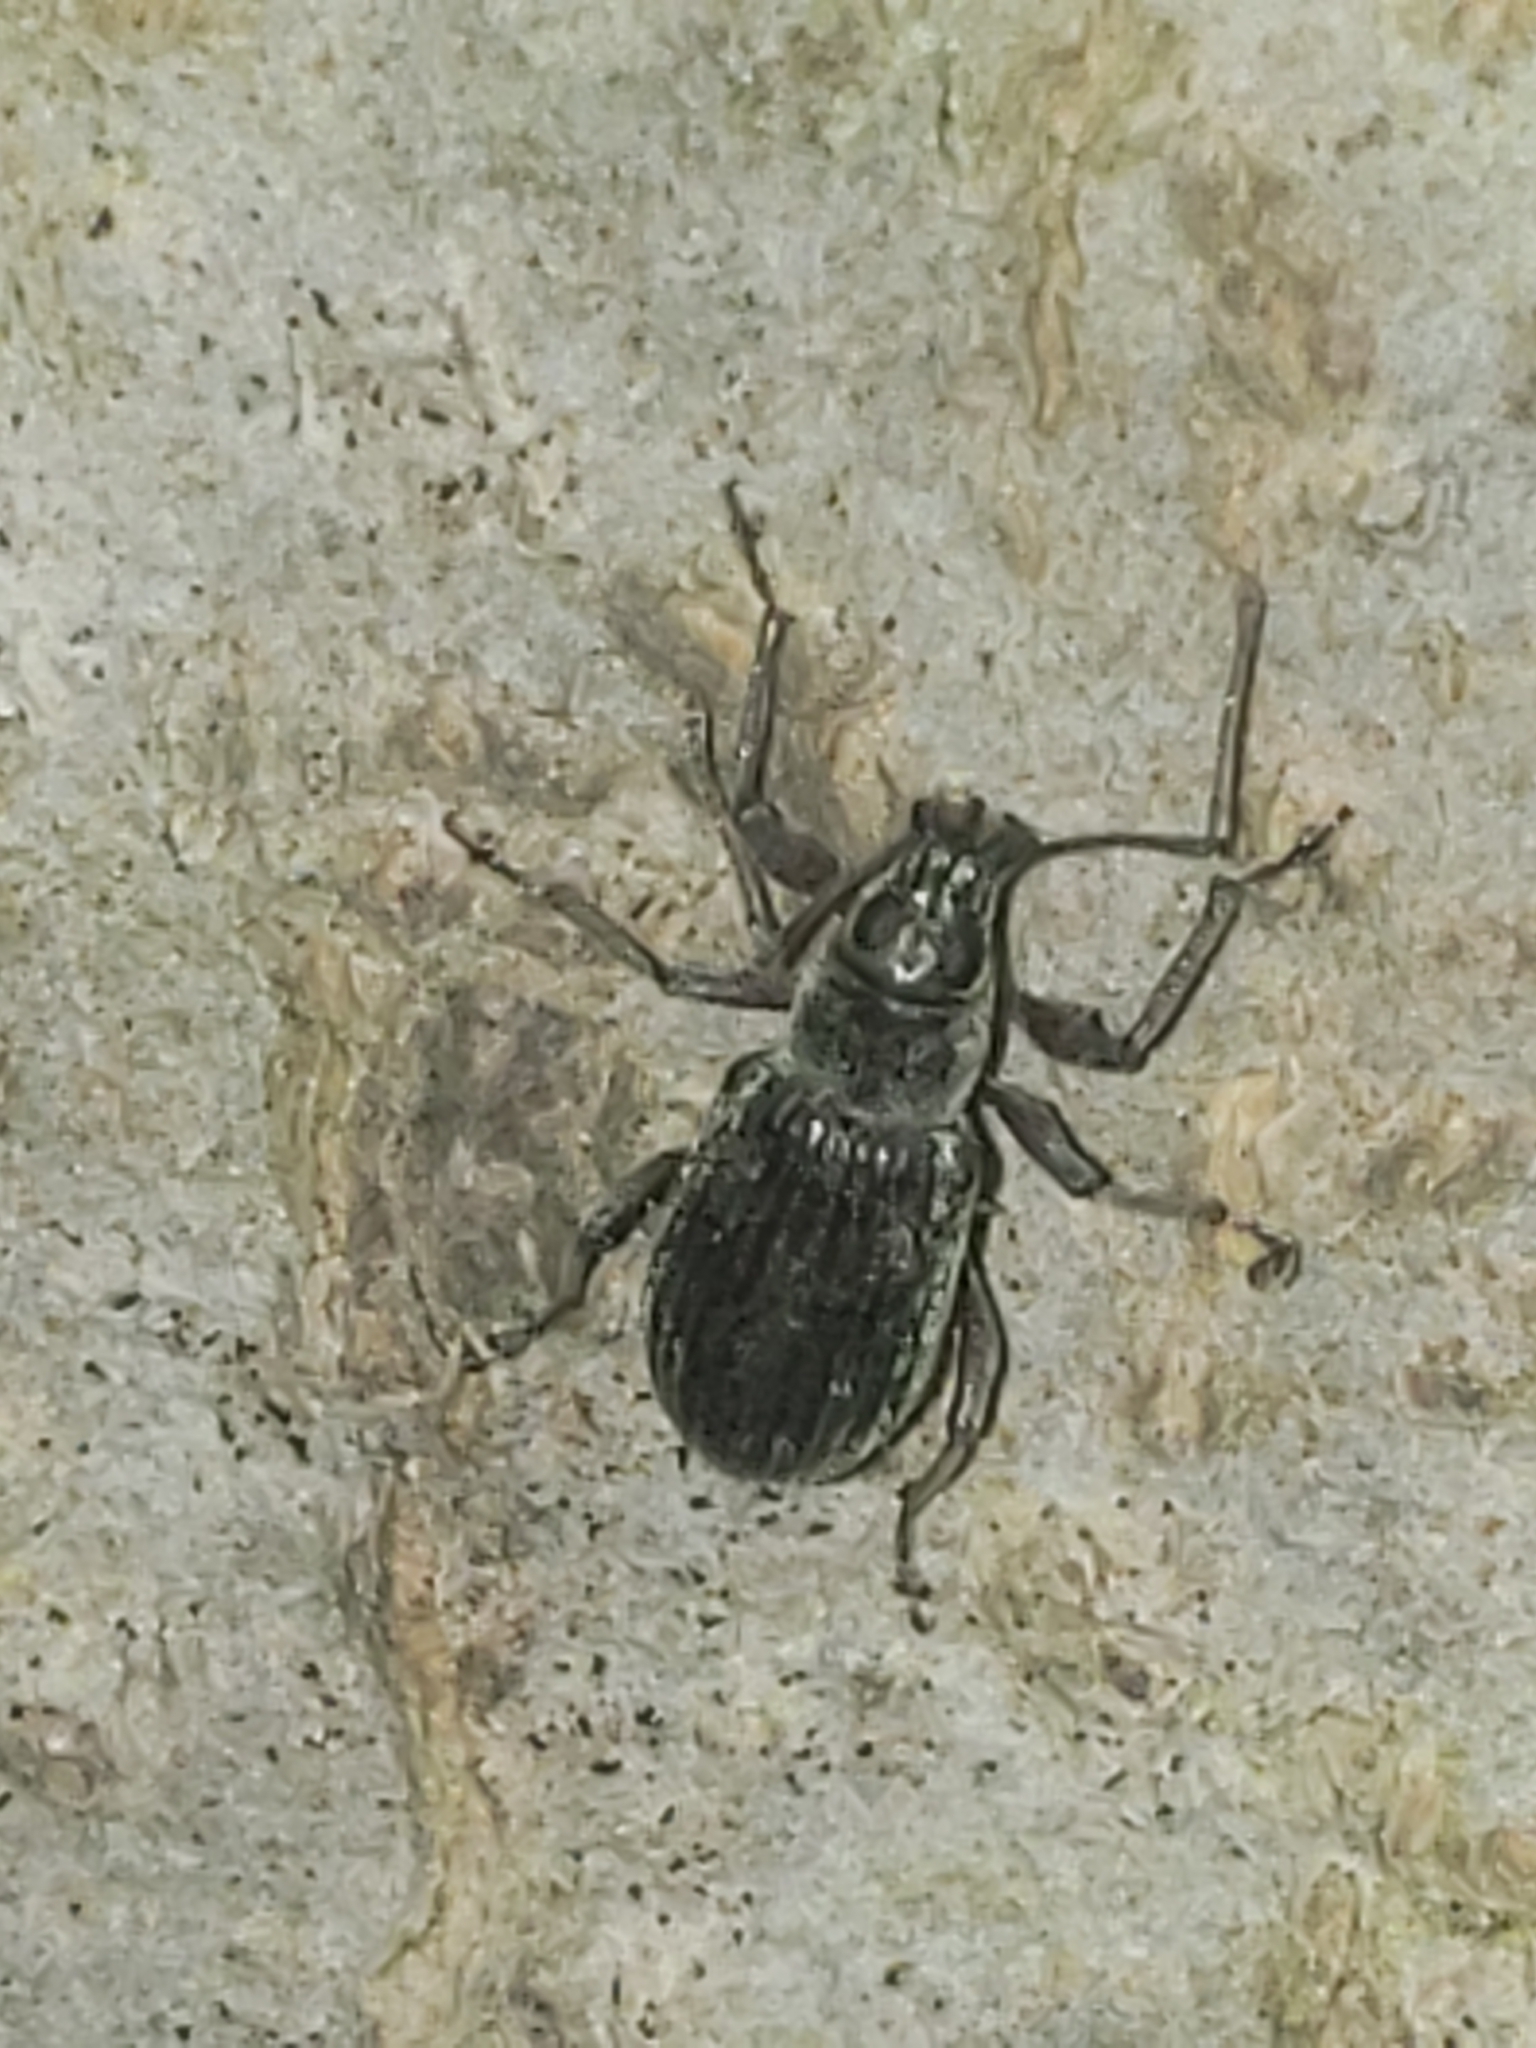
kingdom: Animalia
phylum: Arthropoda
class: Insecta
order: Coleoptera
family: Curculionidae
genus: Cyrtepistomus
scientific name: Cyrtepistomus castaneus
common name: Weevil
